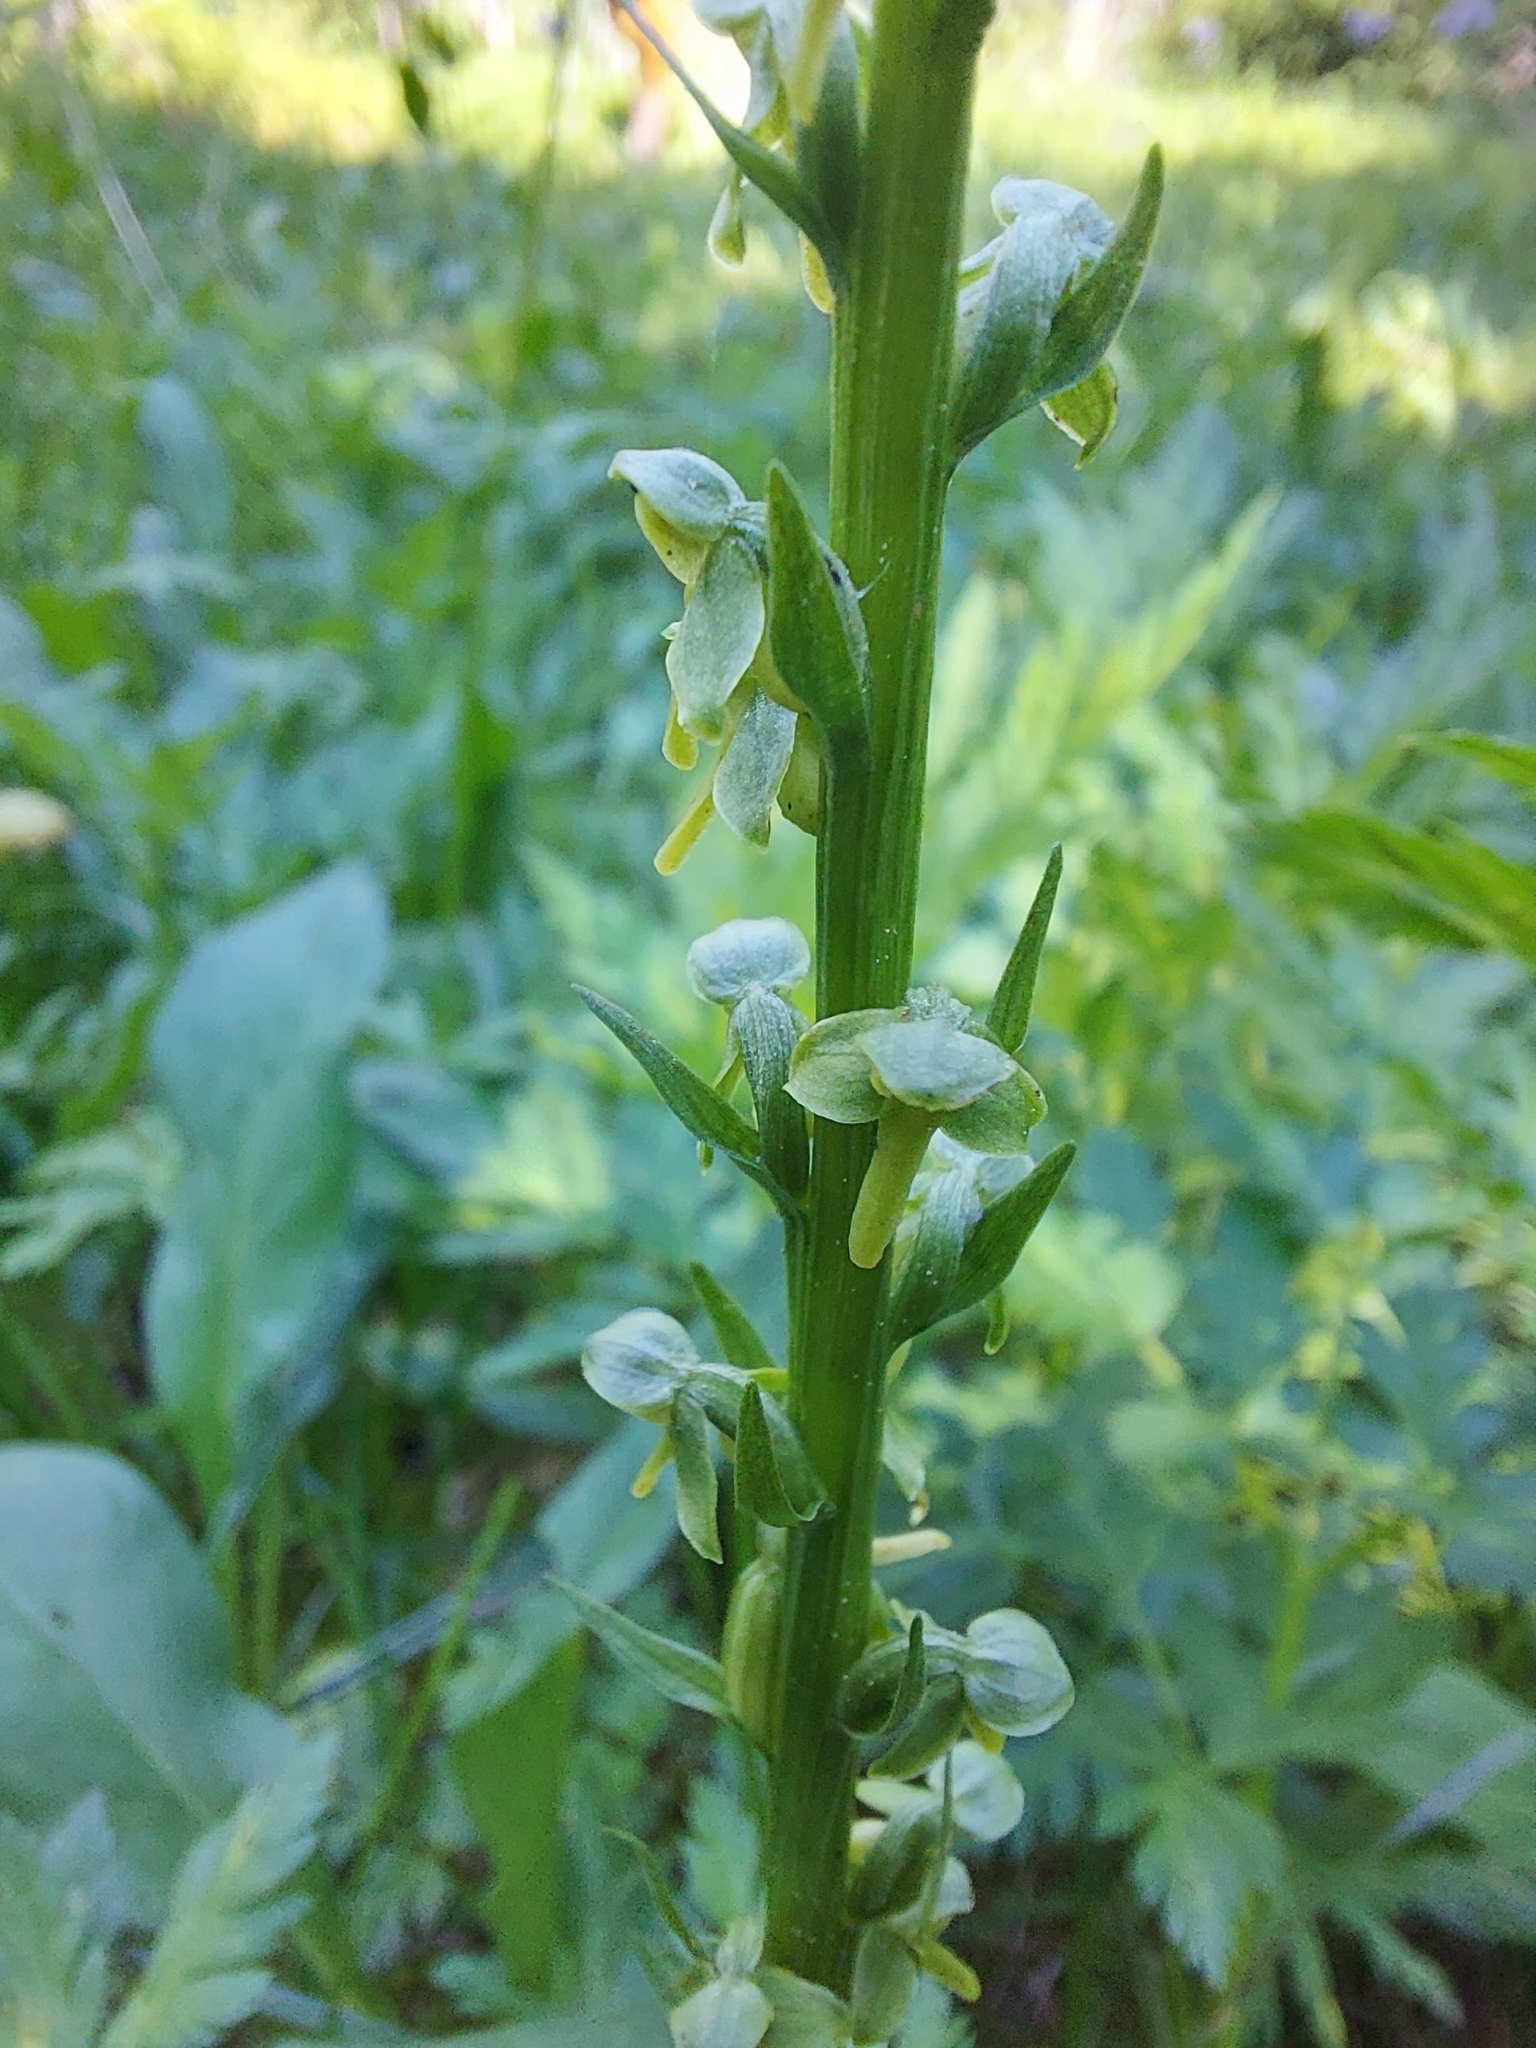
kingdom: Plantae
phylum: Tracheophyta
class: Liliopsida
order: Asparagales
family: Orchidaceae
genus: Platanthera
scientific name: Platanthera stricta
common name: Slender bog orchid
